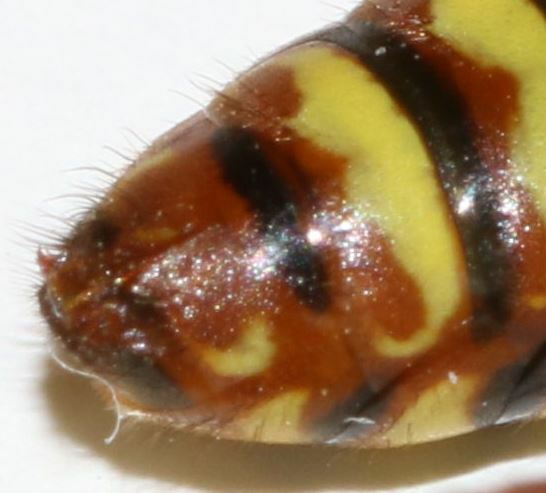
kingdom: Animalia
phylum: Arthropoda
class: Insecta
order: Hymenoptera
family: Apidae
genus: Nomada
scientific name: Nomada signata
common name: Broad-banded nomad bee
